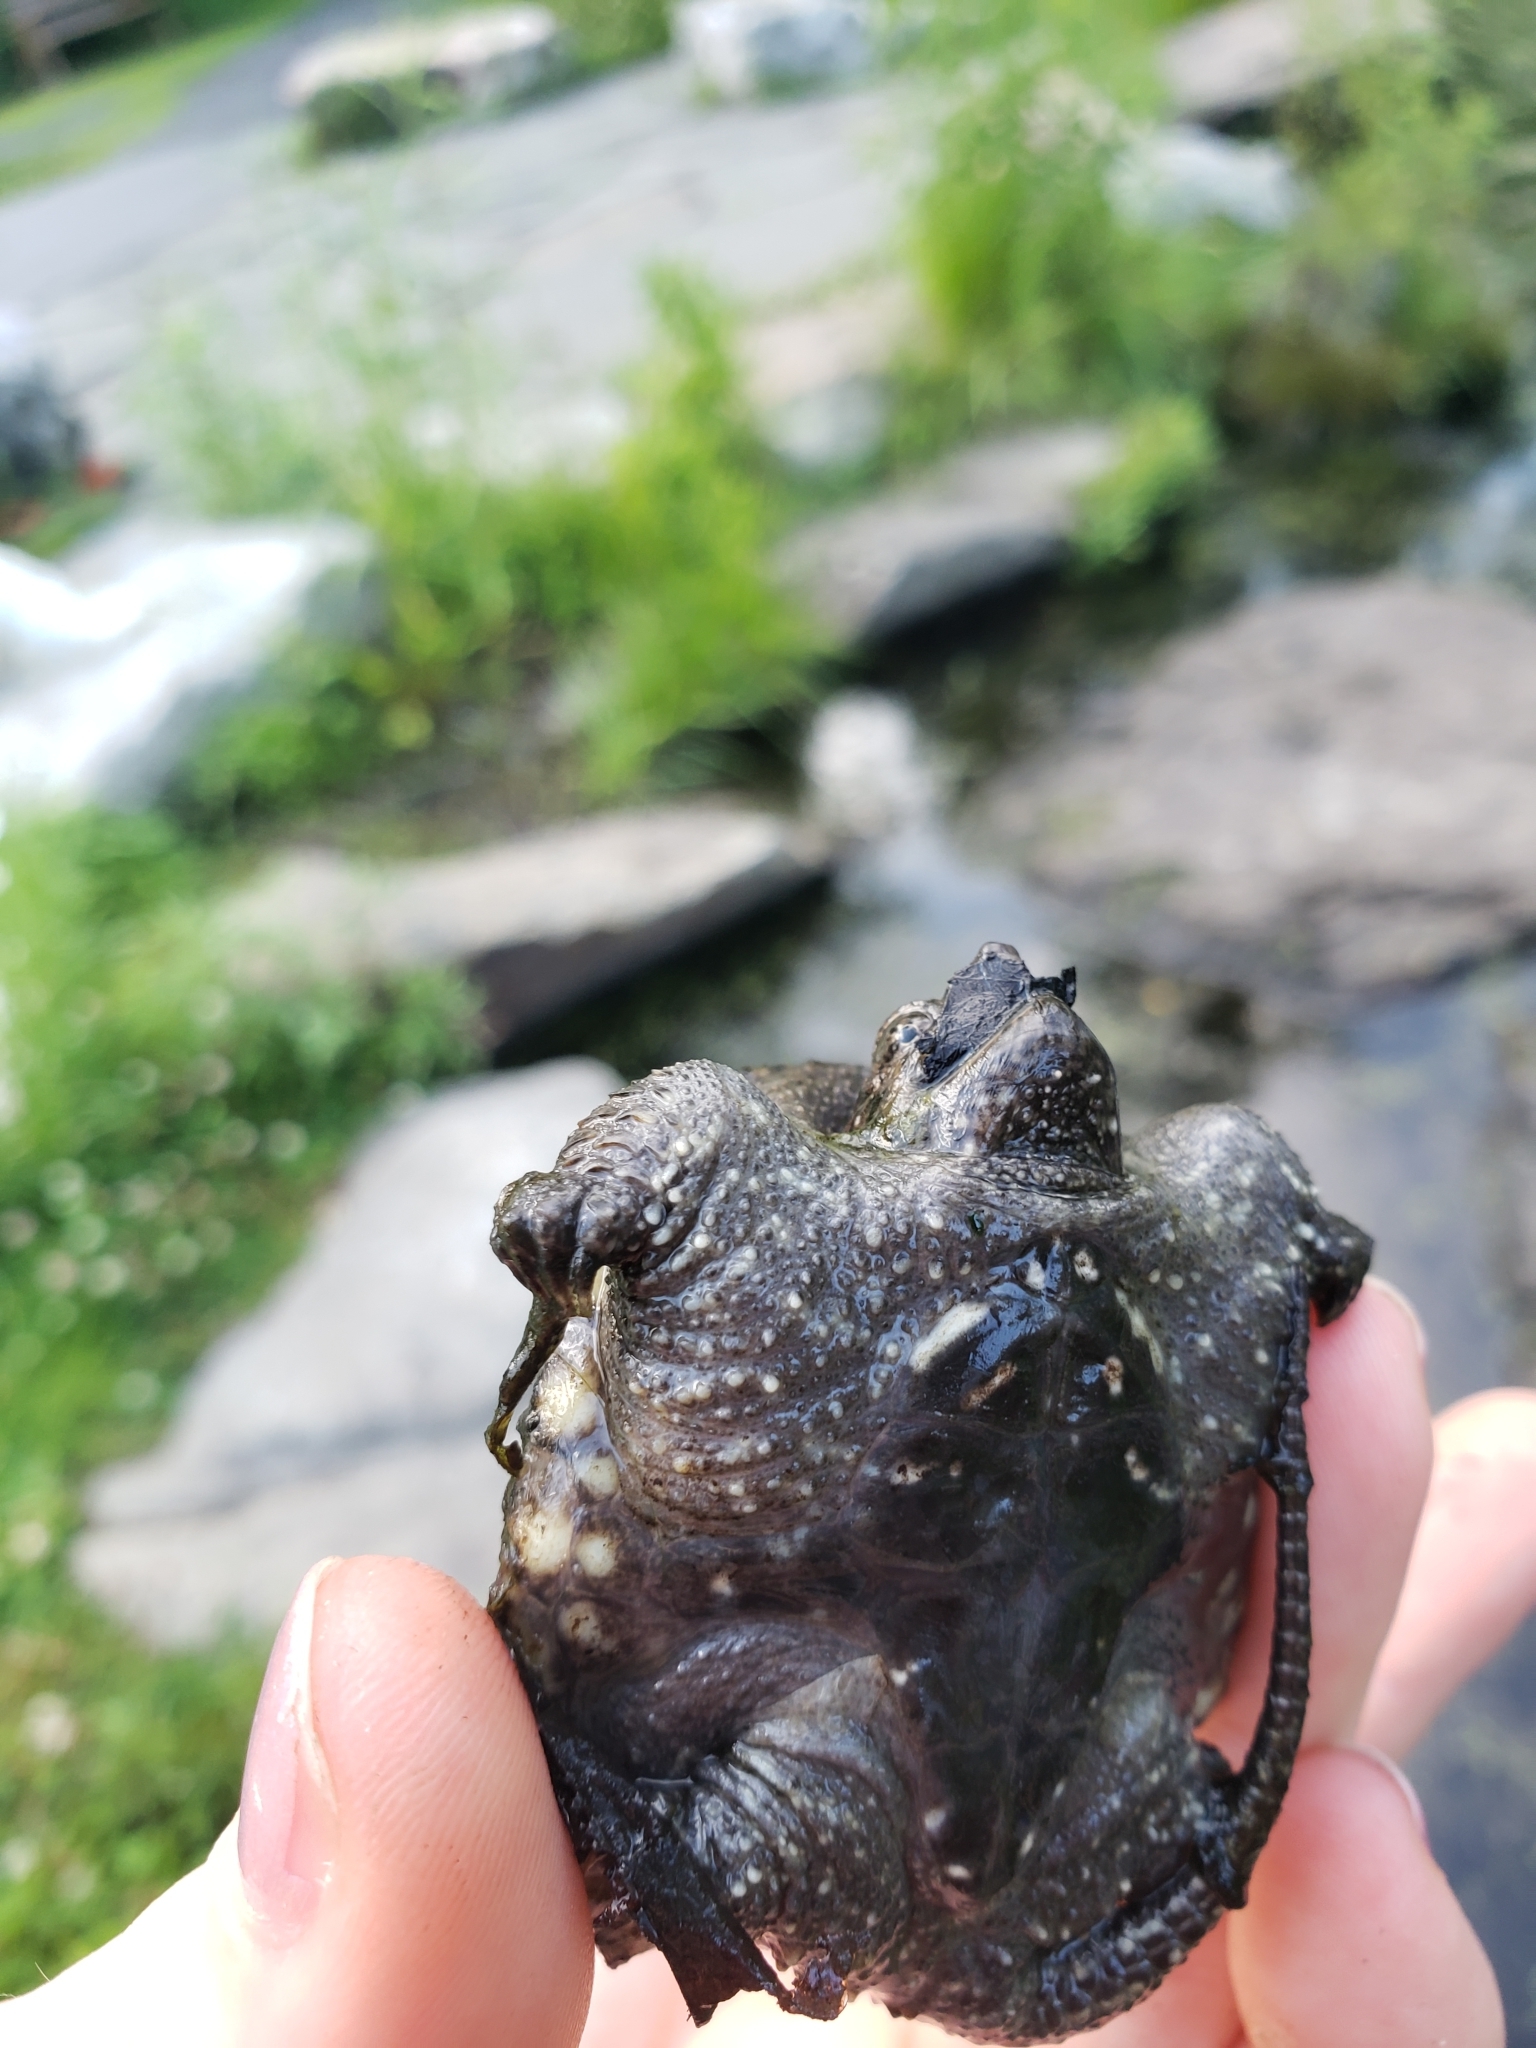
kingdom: Animalia
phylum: Chordata
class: Testudines
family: Chelydridae
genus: Chelydra
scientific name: Chelydra serpentina
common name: Common snapping turtle
